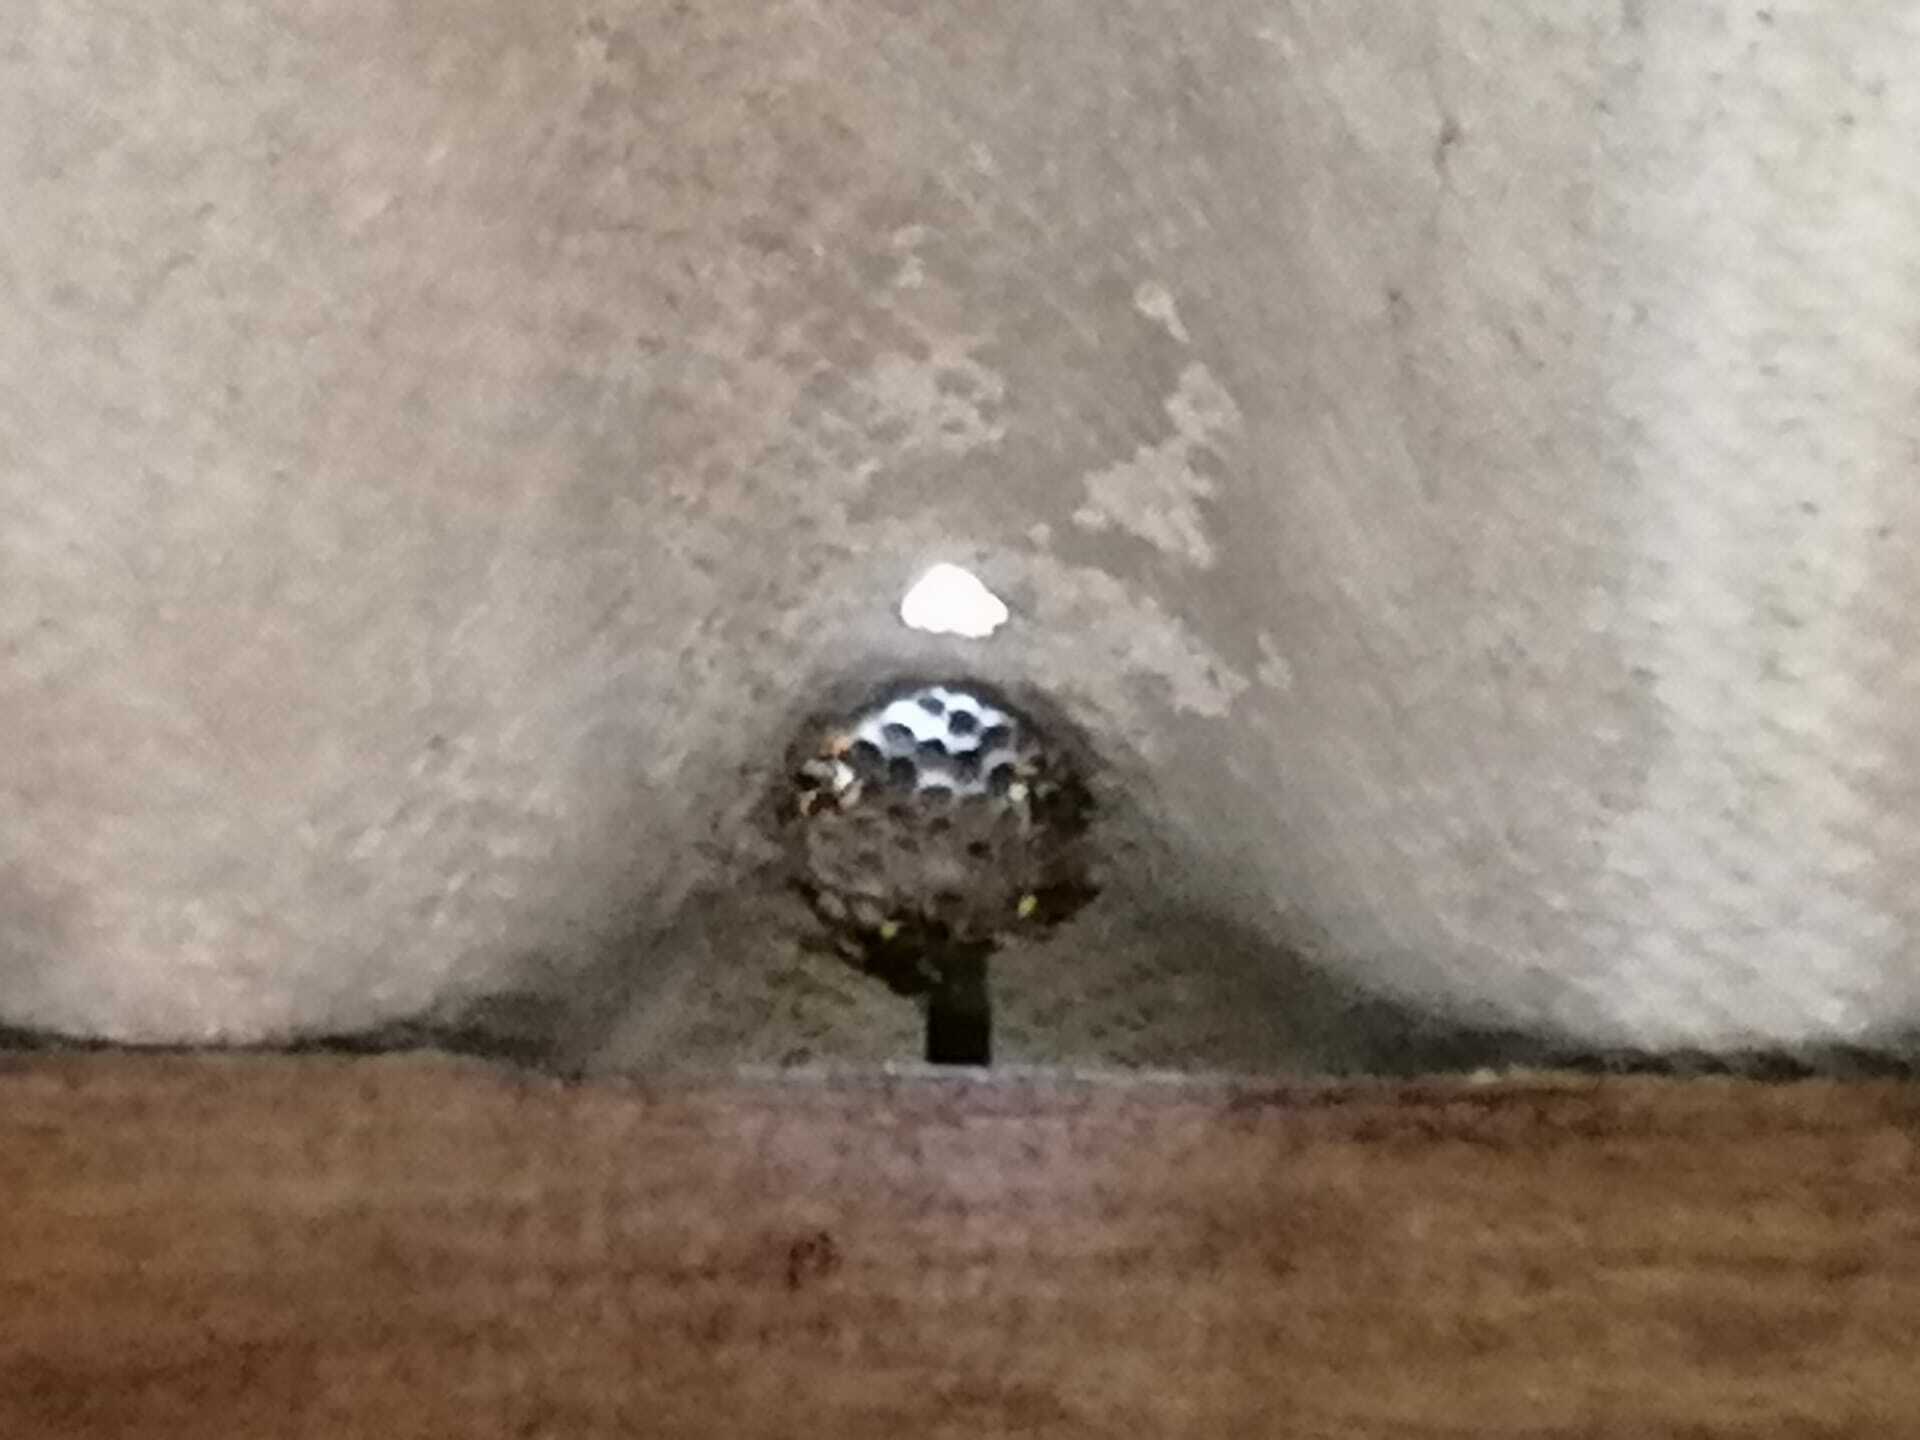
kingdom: Animalia
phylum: Arthropoda
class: Insecta
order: Hymenoptera
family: Eumenidae
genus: Polistes
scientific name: Polistes dominula
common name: Paper wasp
